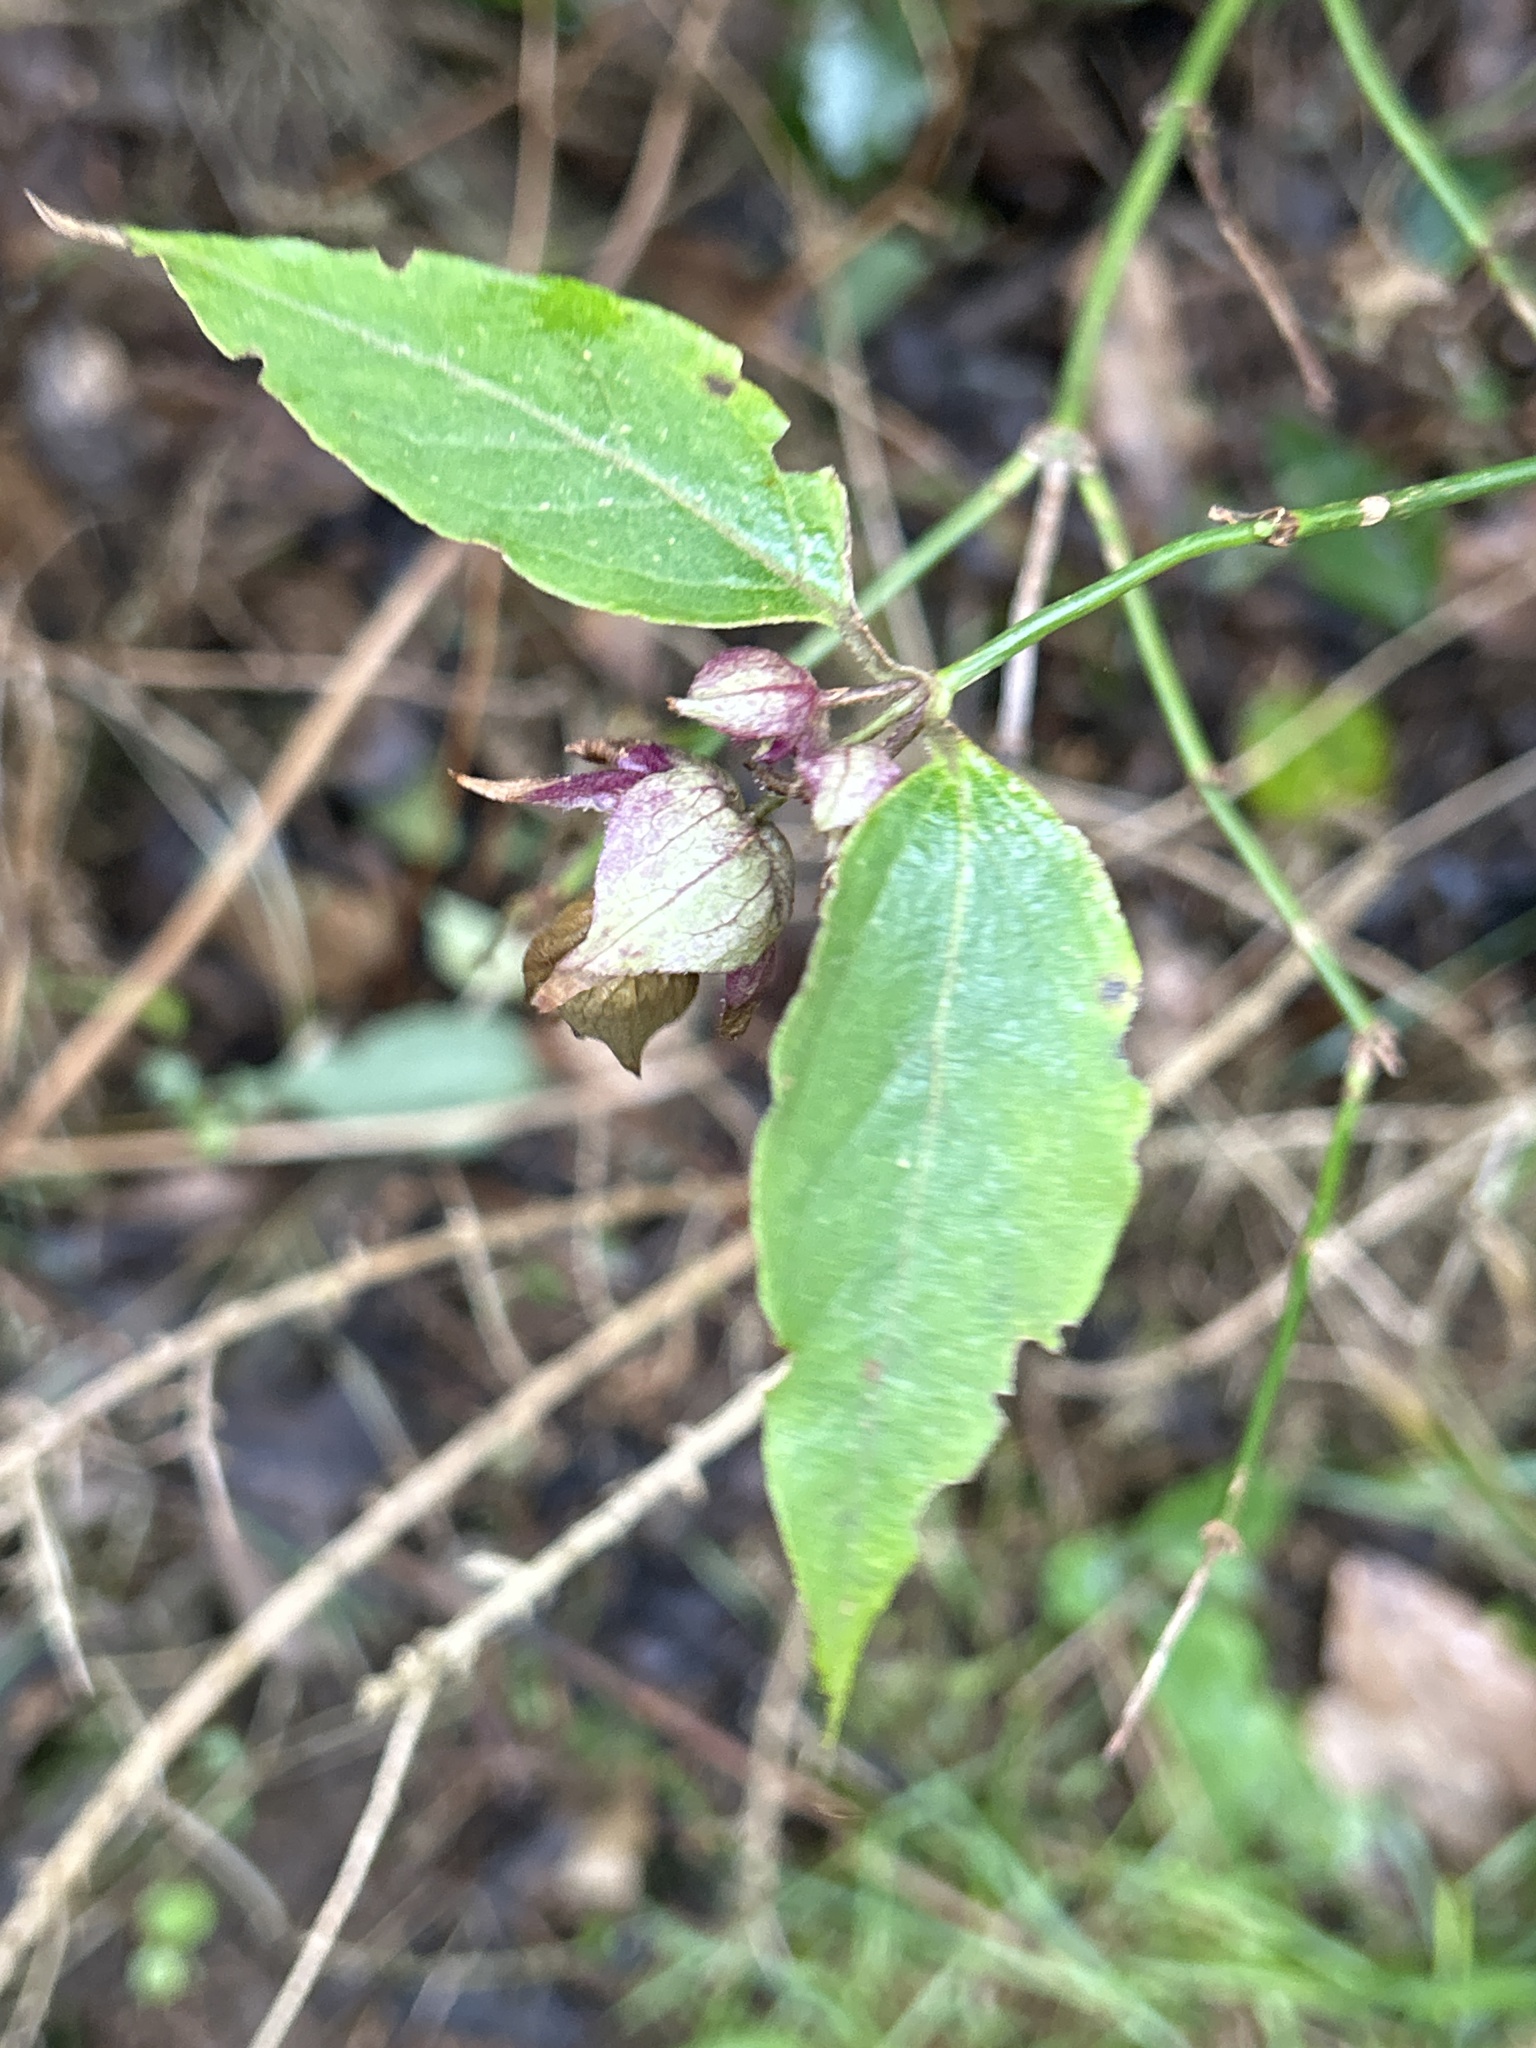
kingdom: Plantae
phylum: Tracheophyta
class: Magnoliopsida
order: Dipsacales
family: Caprifoliaceae
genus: Leycesteria
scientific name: Leycesteria formosa
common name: Himalayan honeysuckle
